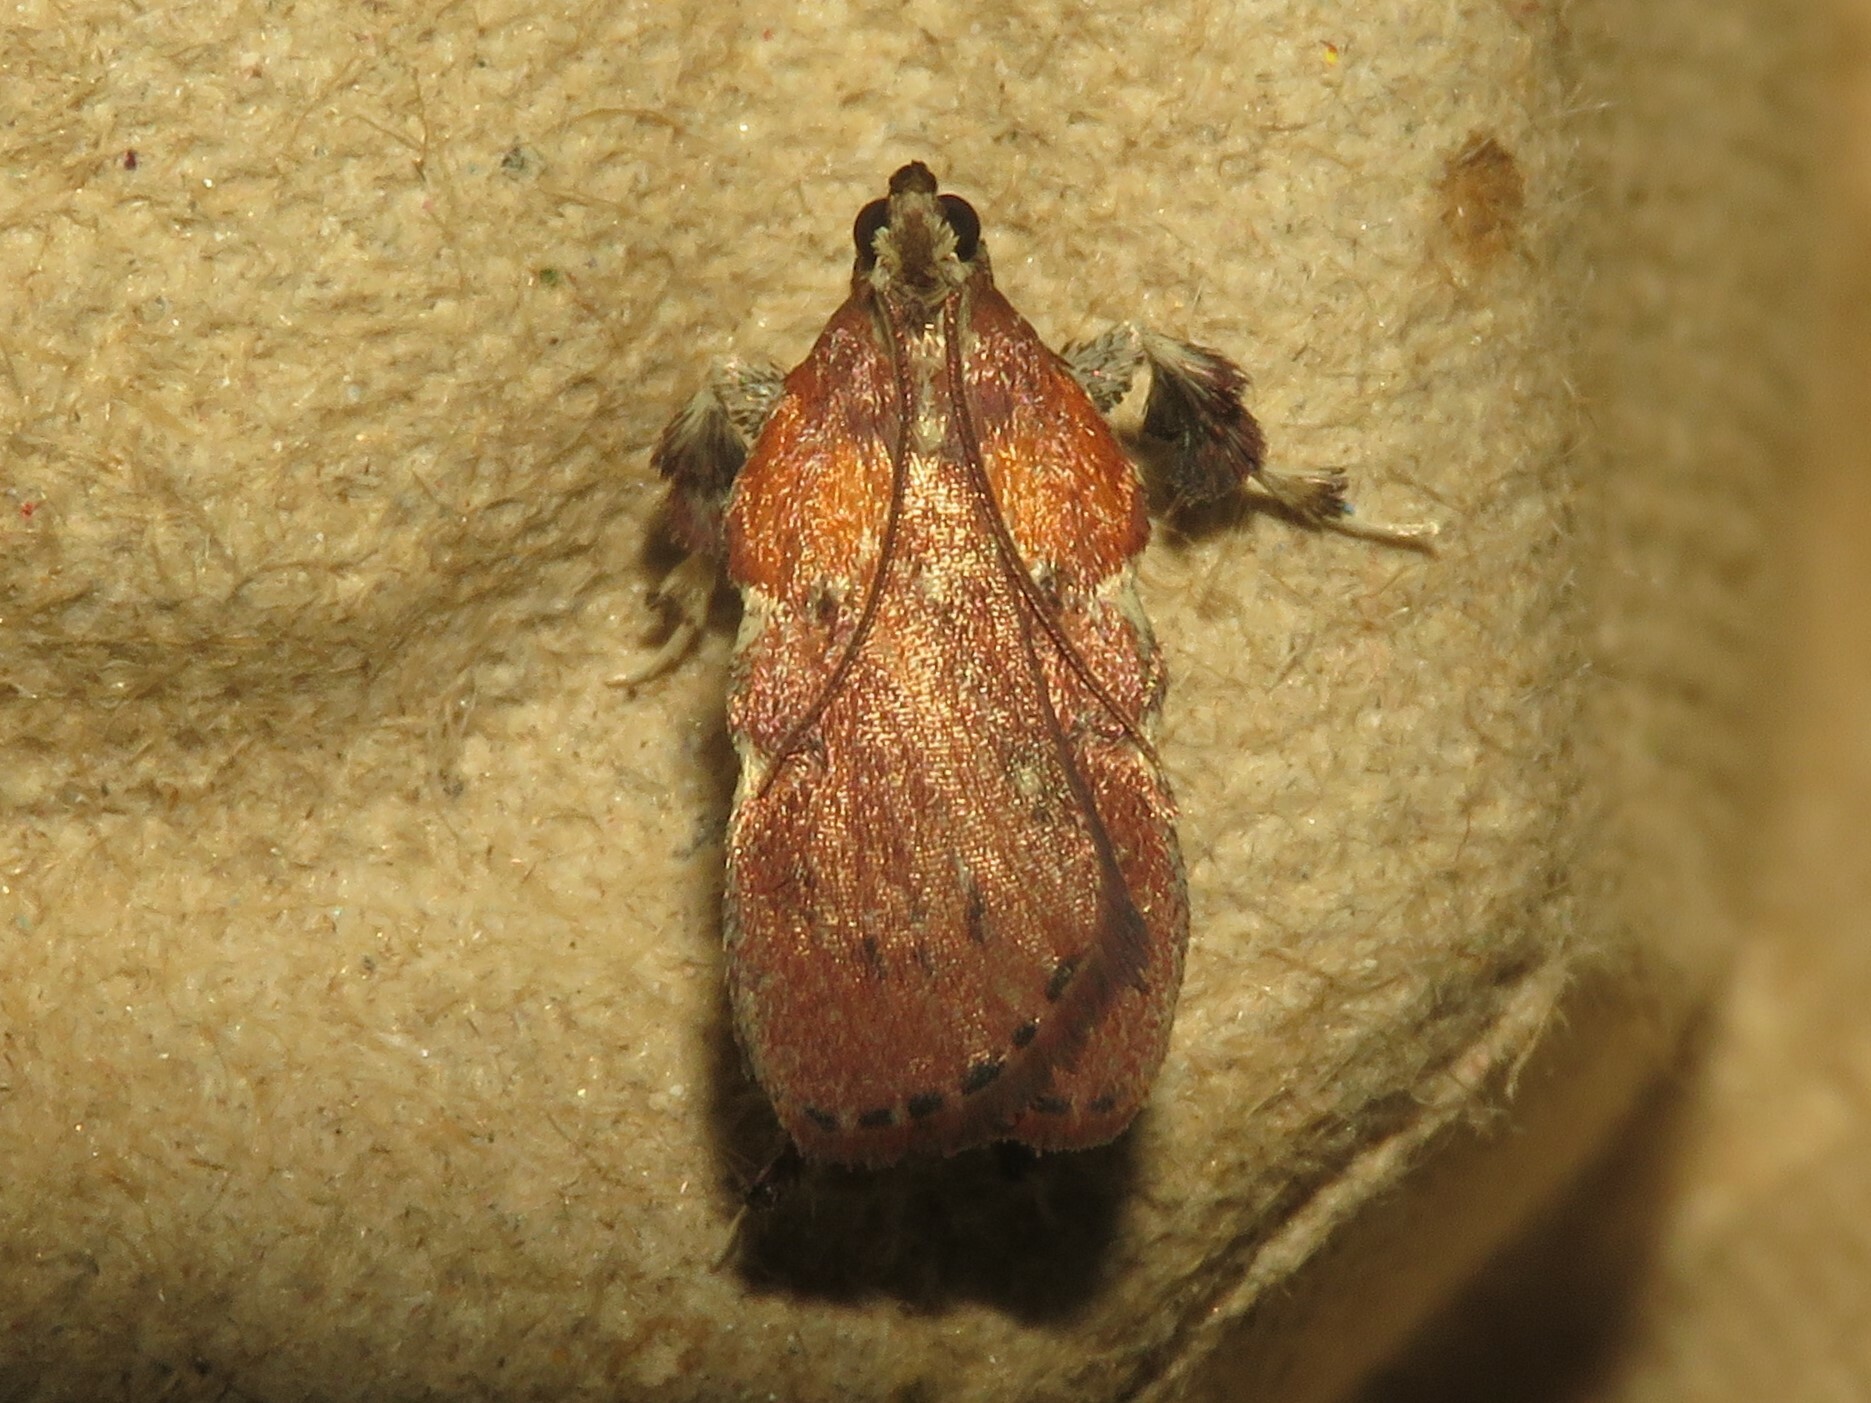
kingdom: Animalia
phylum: Arthropoda
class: Insecta
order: Lepidoptera
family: Pyralidae
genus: Galasa
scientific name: Galasa nigrinodis
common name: Boxwood leaftier moth
